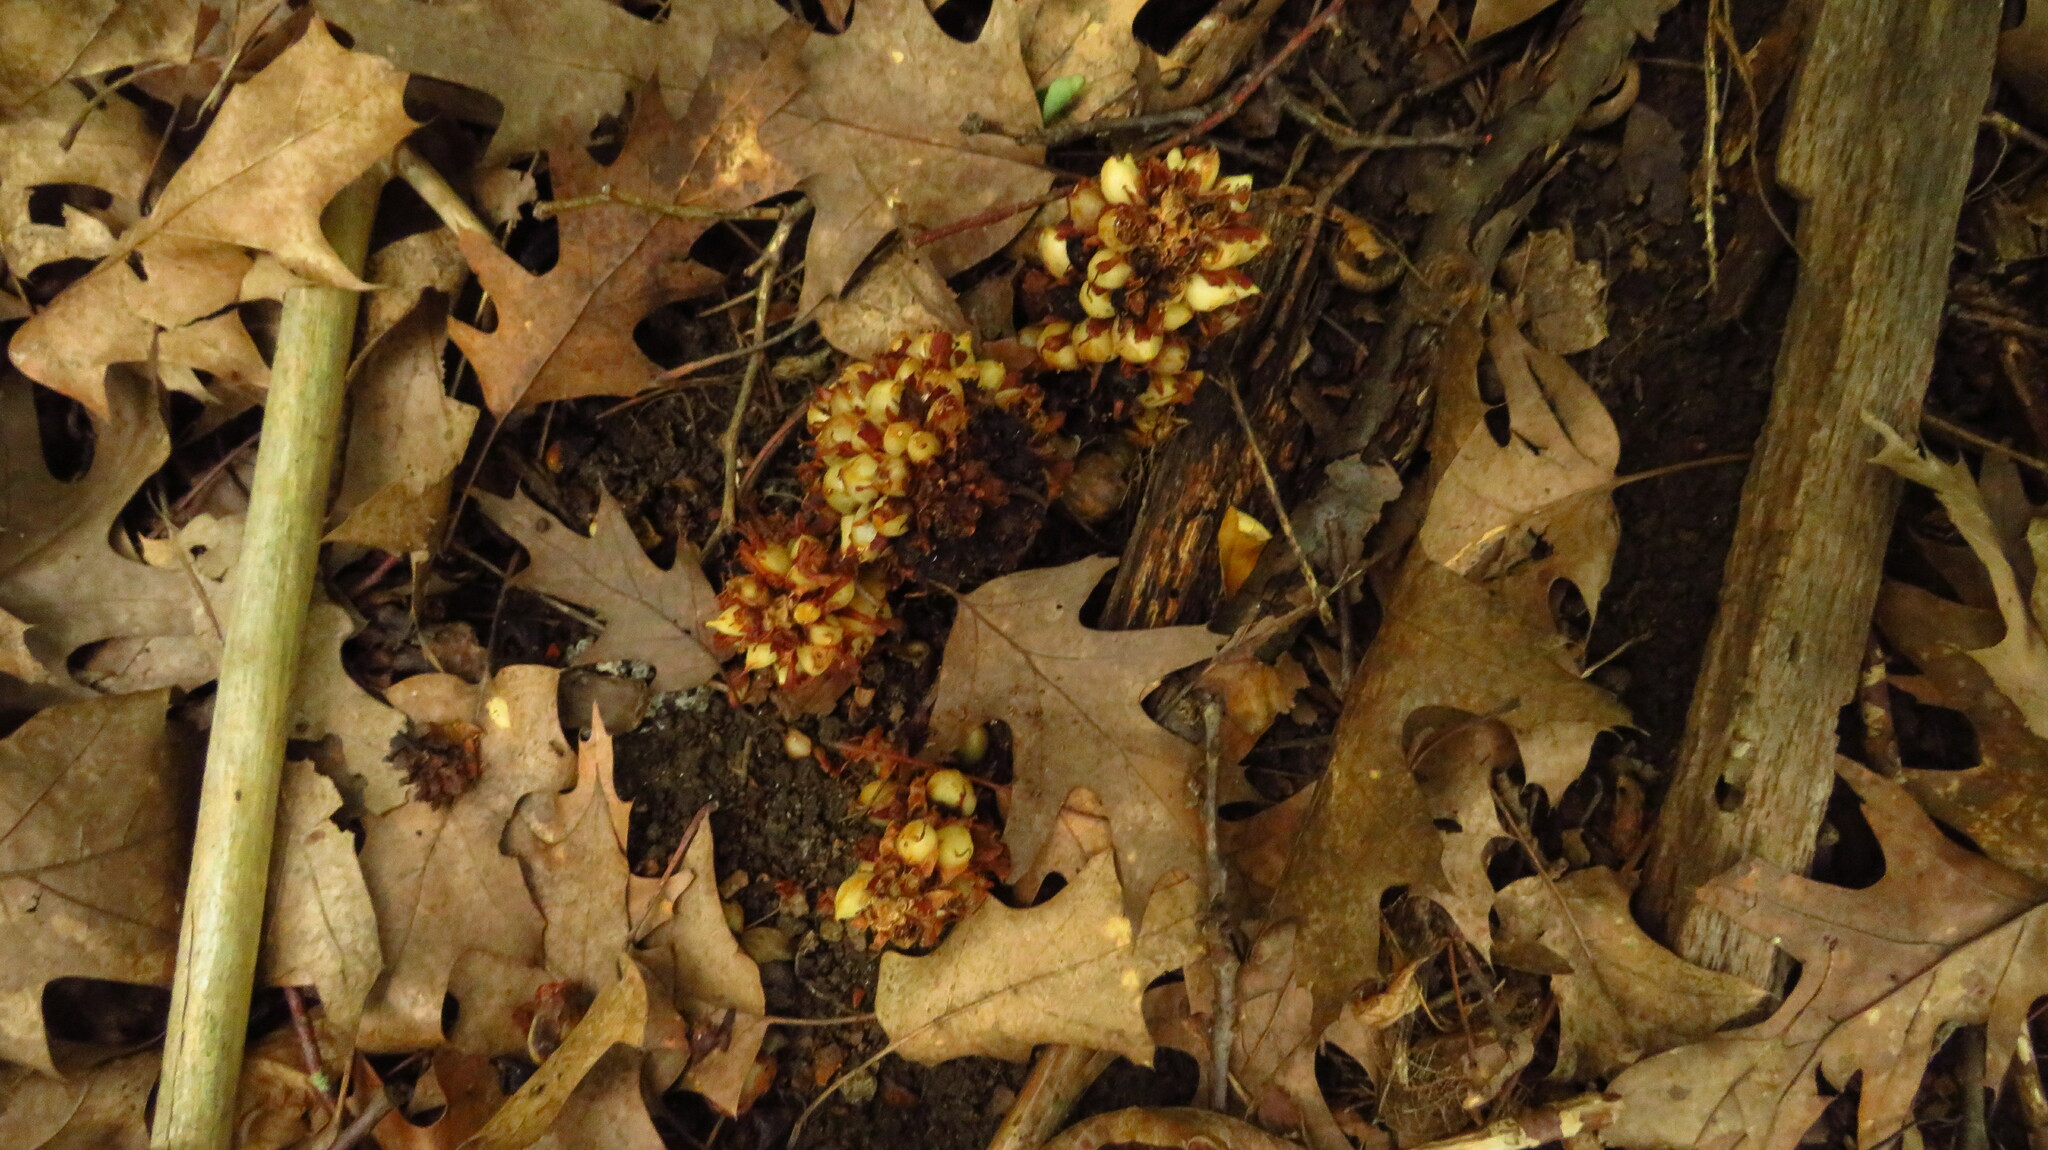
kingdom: Plantae
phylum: Tracheophyta
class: Magnoliopsida
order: Lamiales
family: Orobanchaceae
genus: Conopholis
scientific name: Conopholis americana
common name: American cancer-root
